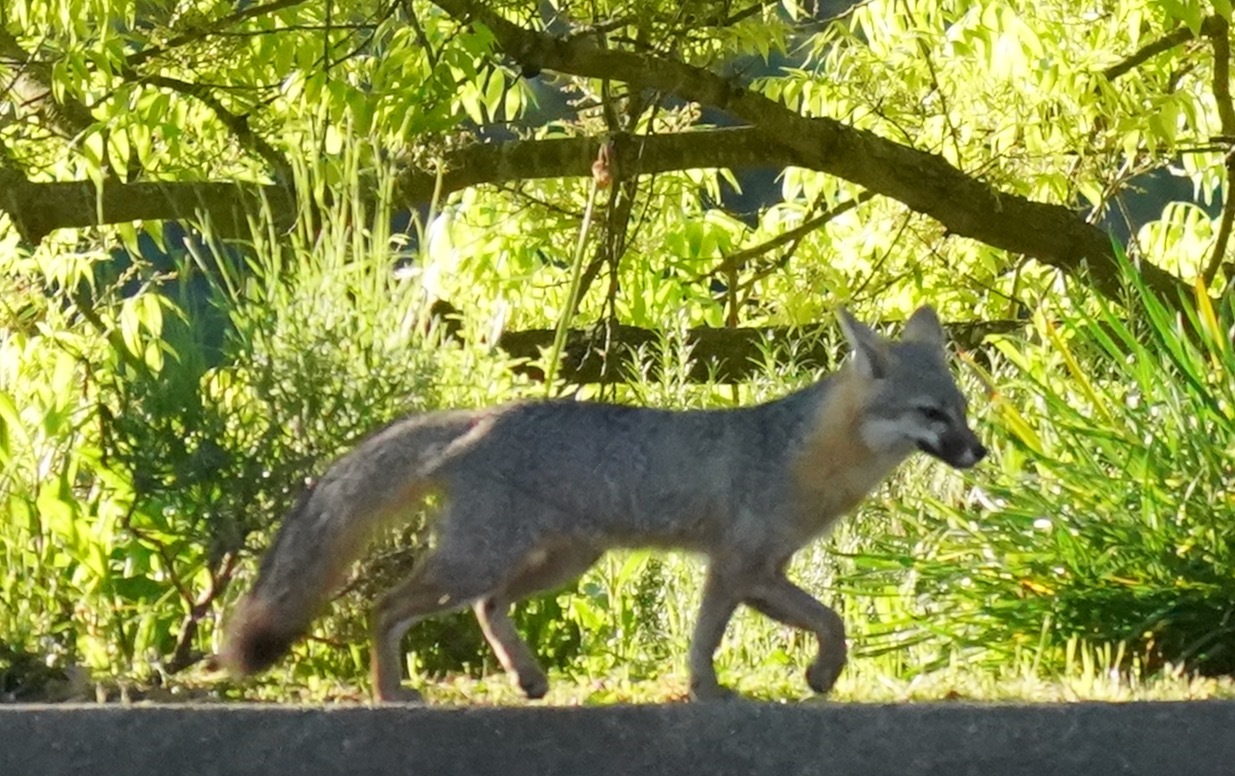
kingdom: Animalia
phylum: Chordata
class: Mammalia
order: Carnivora
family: Canidae
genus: Urocyon
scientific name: Urocyon cinereoargenteus
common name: Gray fox
